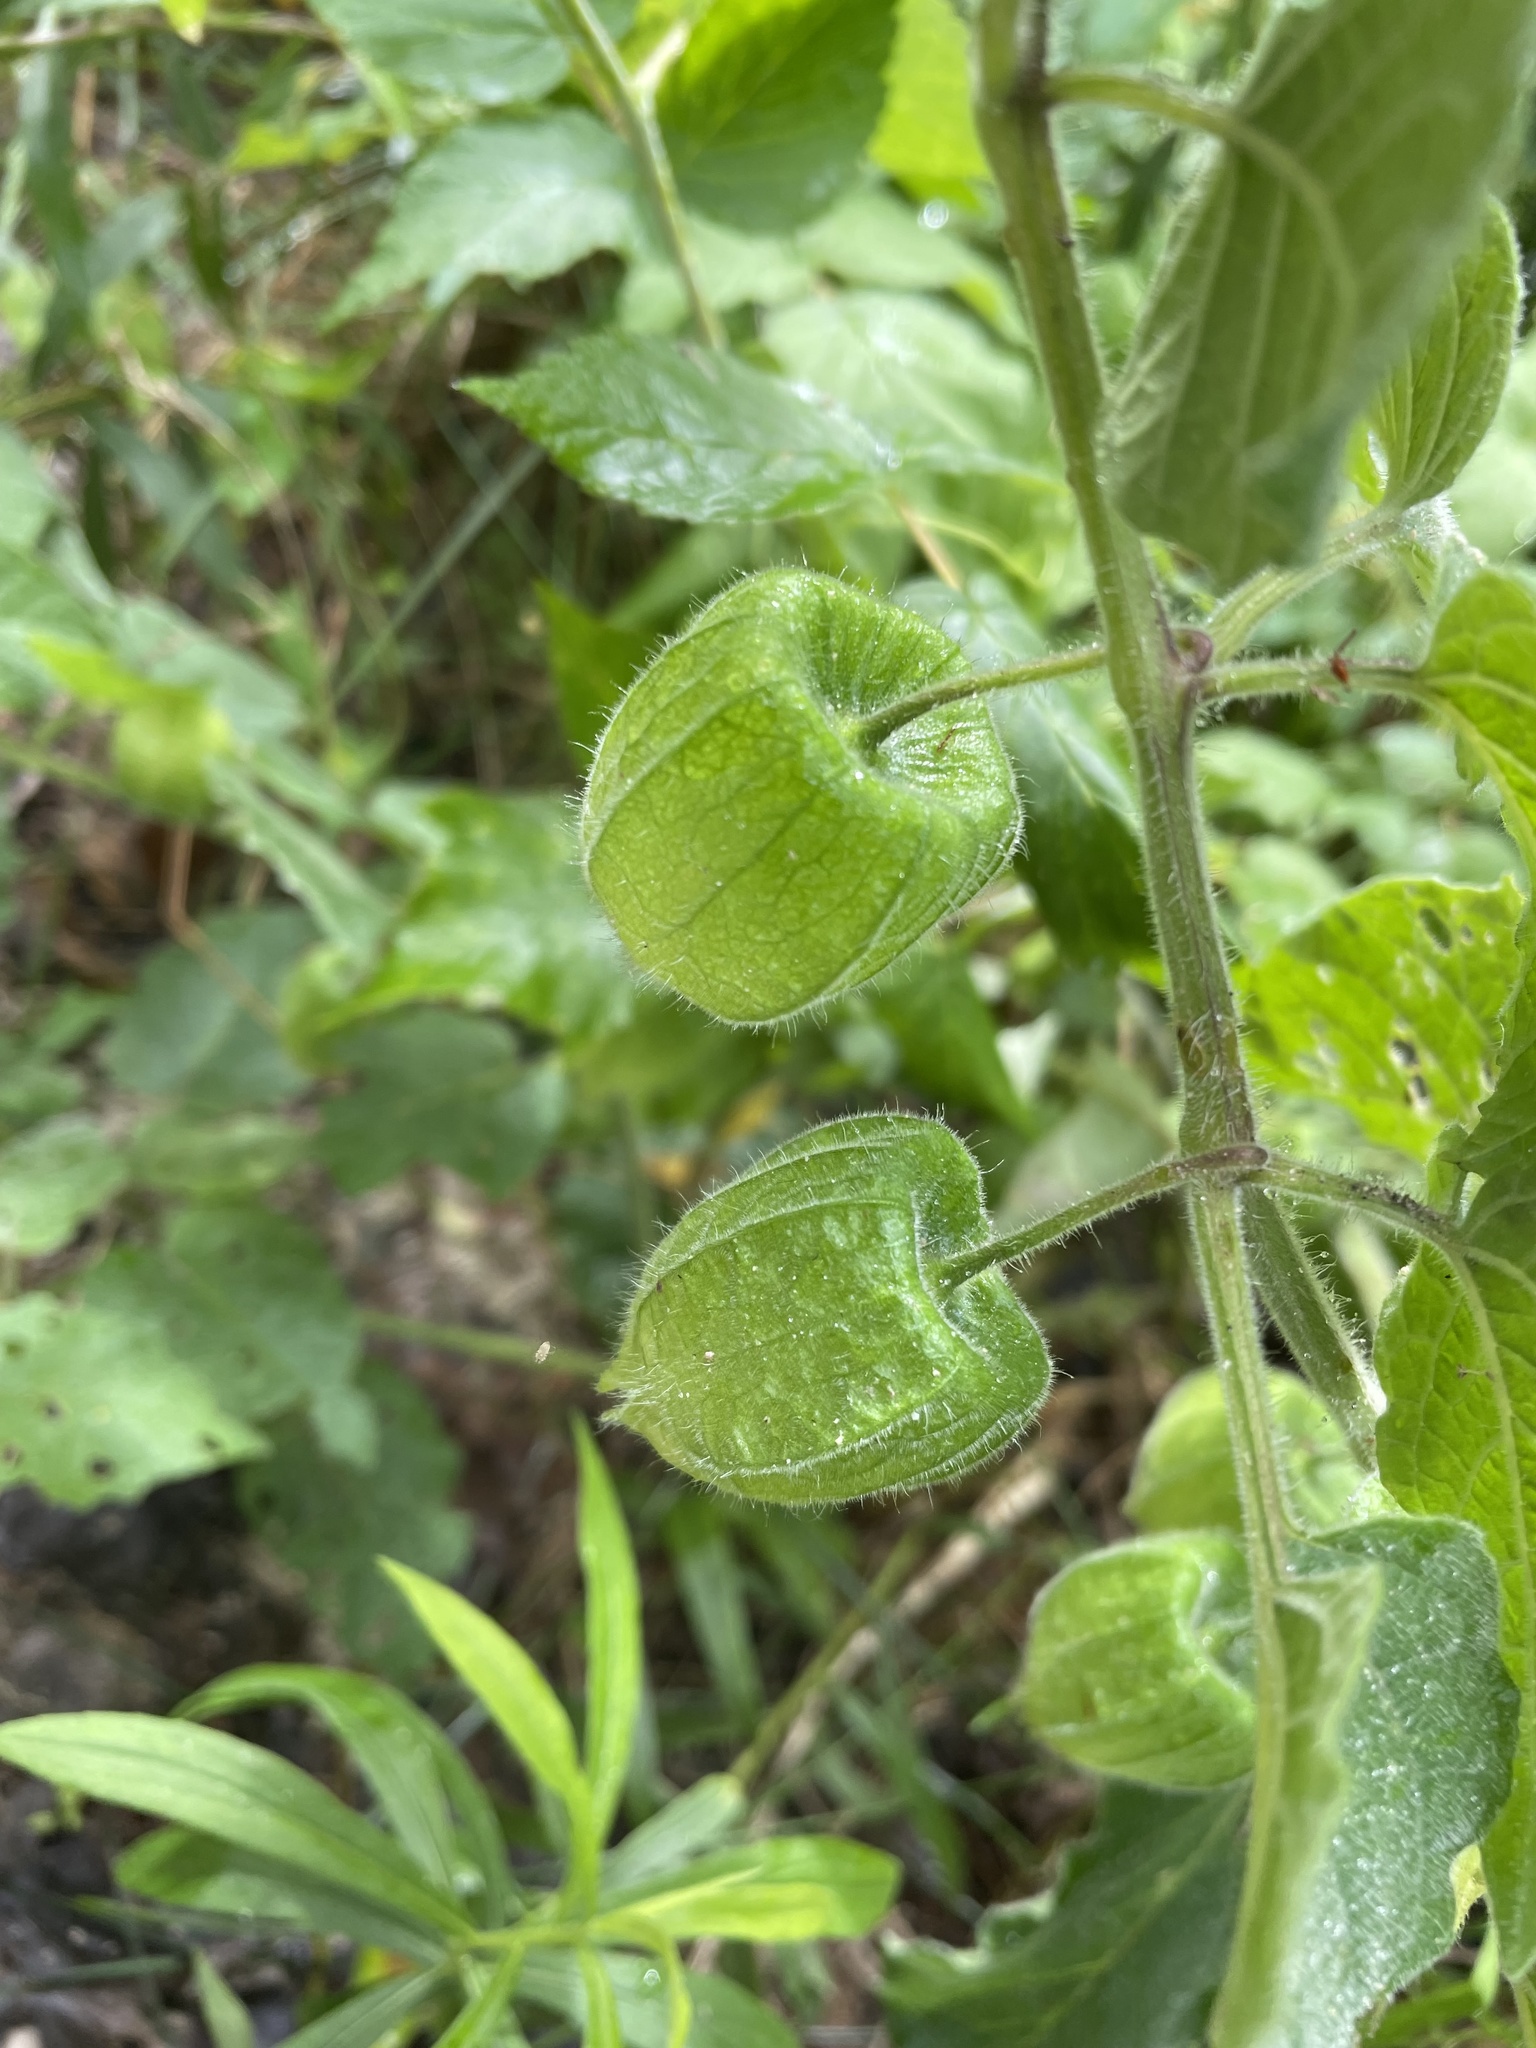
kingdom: Plantae
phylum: Tracheophyta
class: Magnoliopsida
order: Solanales
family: Solanaceae
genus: Physalis
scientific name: Physalis heterophylla
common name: Clammy ground-cherry
